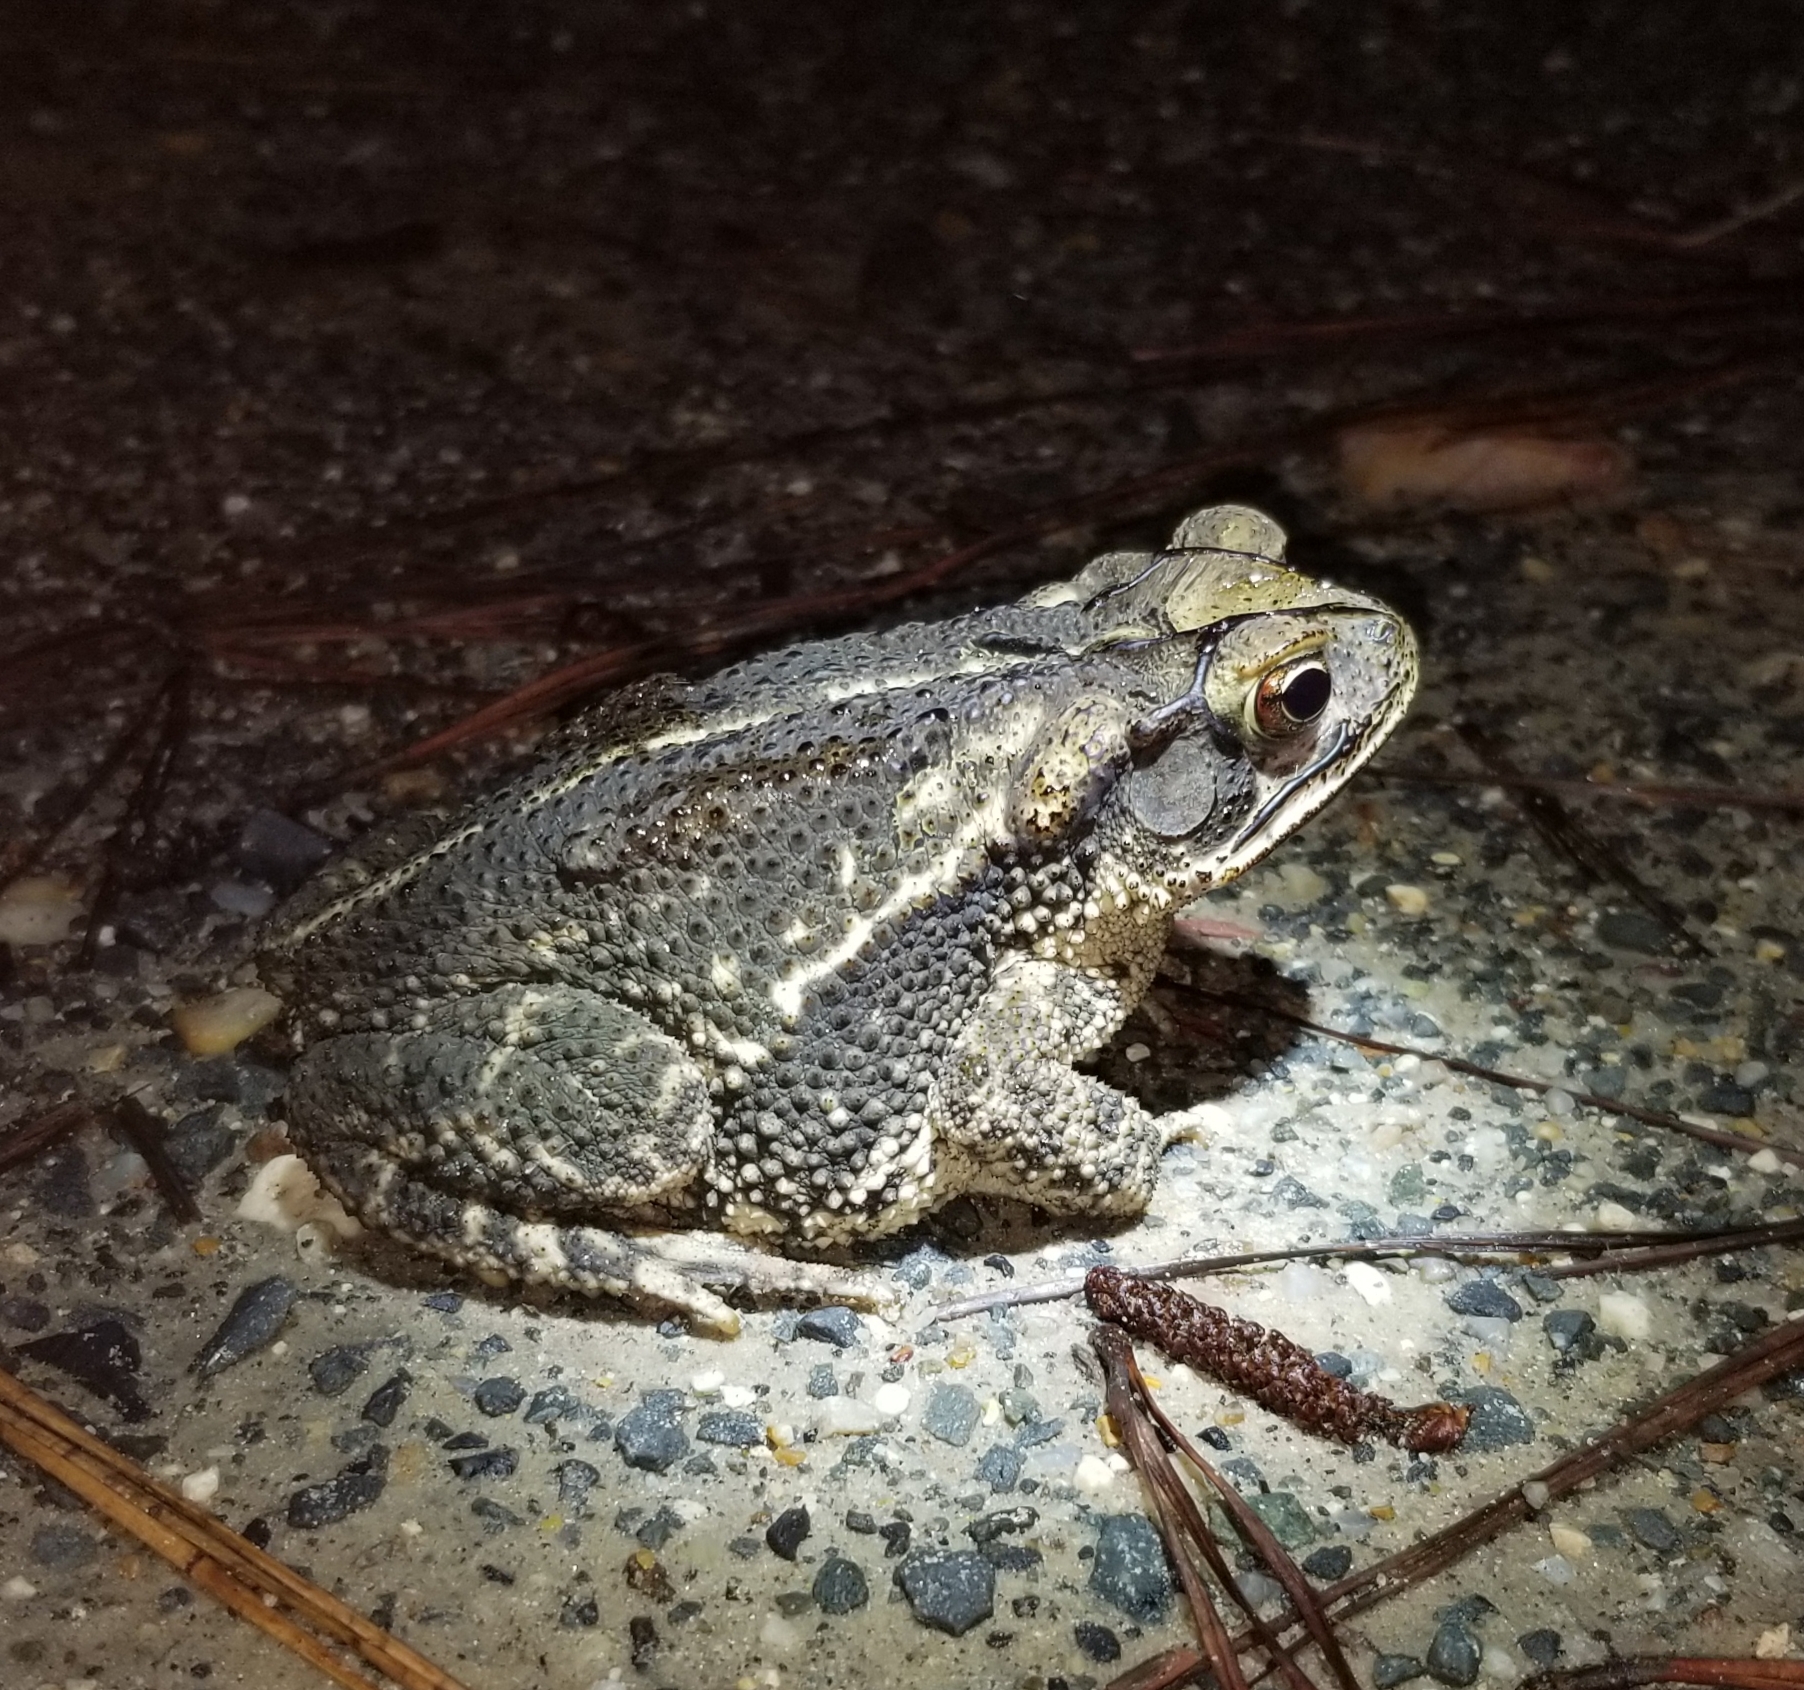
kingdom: Animalia
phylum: Chordata
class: Amphibia
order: Anura
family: Bufonidae
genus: Incilius
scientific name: Incilius nebulifer
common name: Gulf coast toad
